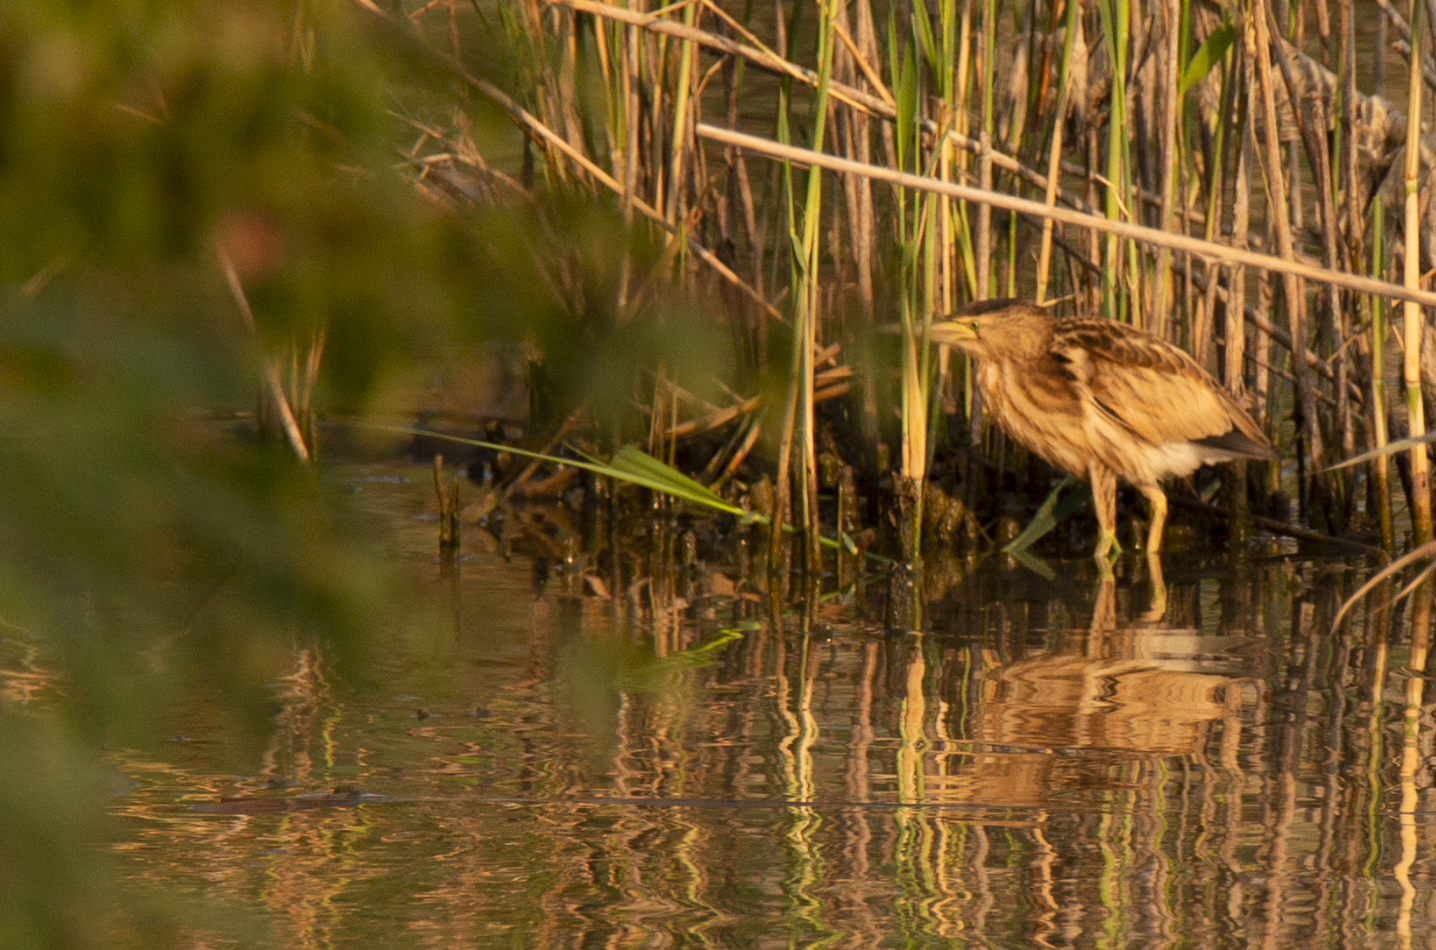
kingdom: Animalia
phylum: Chordata
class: Aves
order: Pelecaniformes
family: Ardeidae
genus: Ixobrychus
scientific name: Ixobrychus minutus
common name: Little bittern
